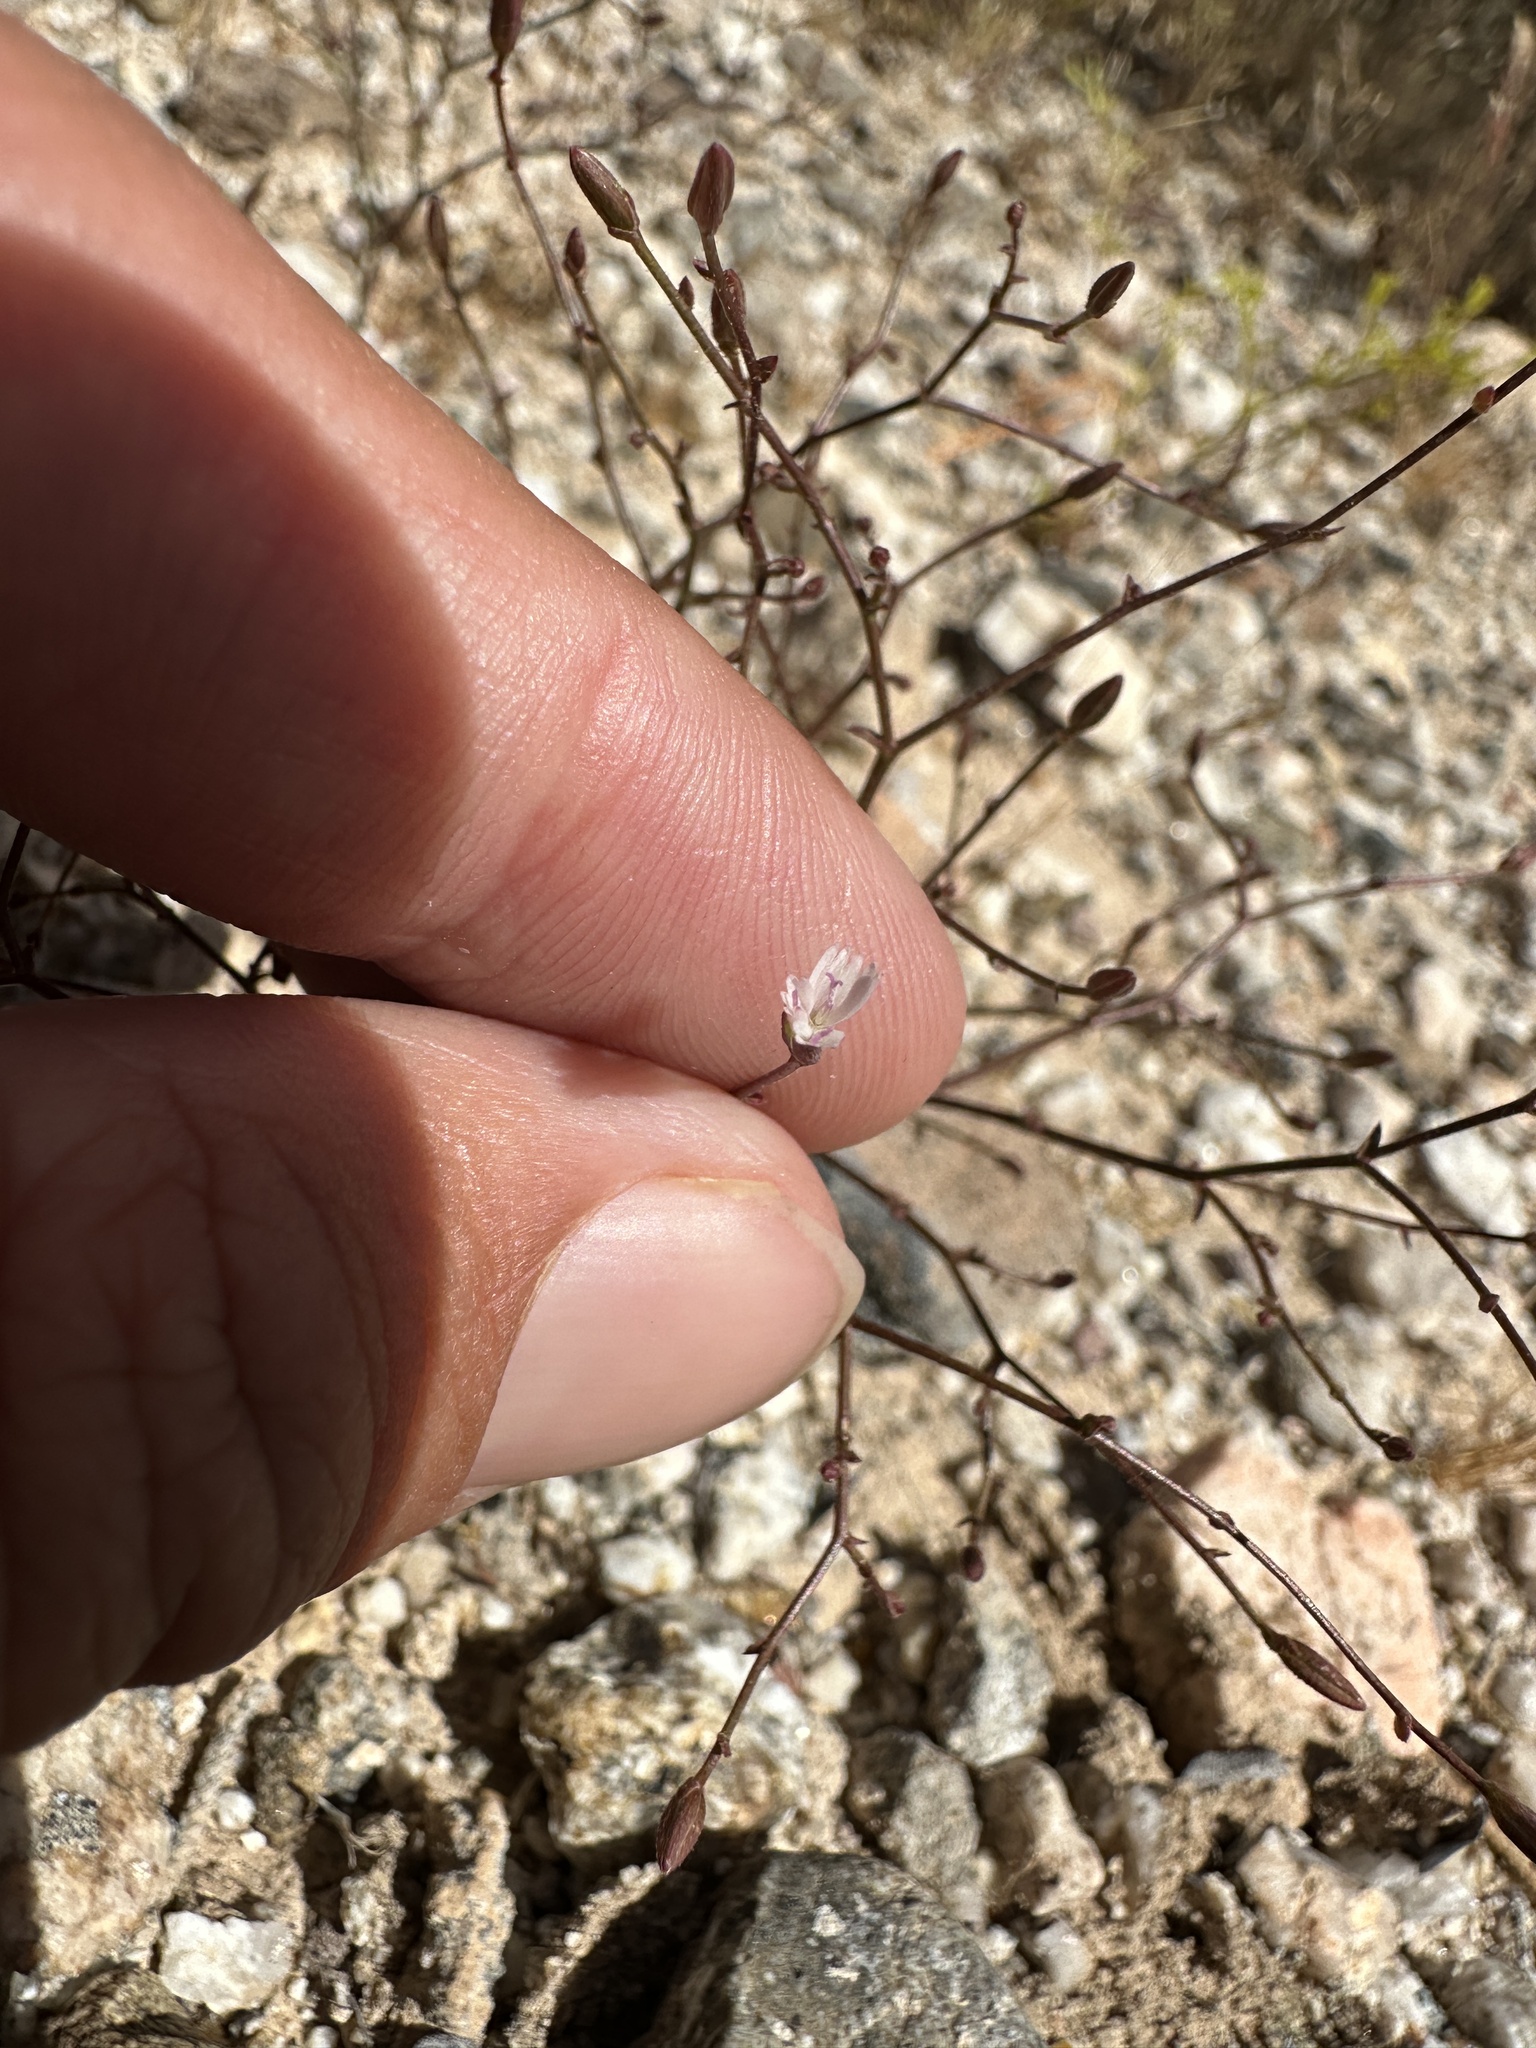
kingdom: Plantae
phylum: Tracheophyta
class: Magnoliopsida
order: Asterales
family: Asteraceae
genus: Lygodesmia
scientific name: Lygodesmia exigua
